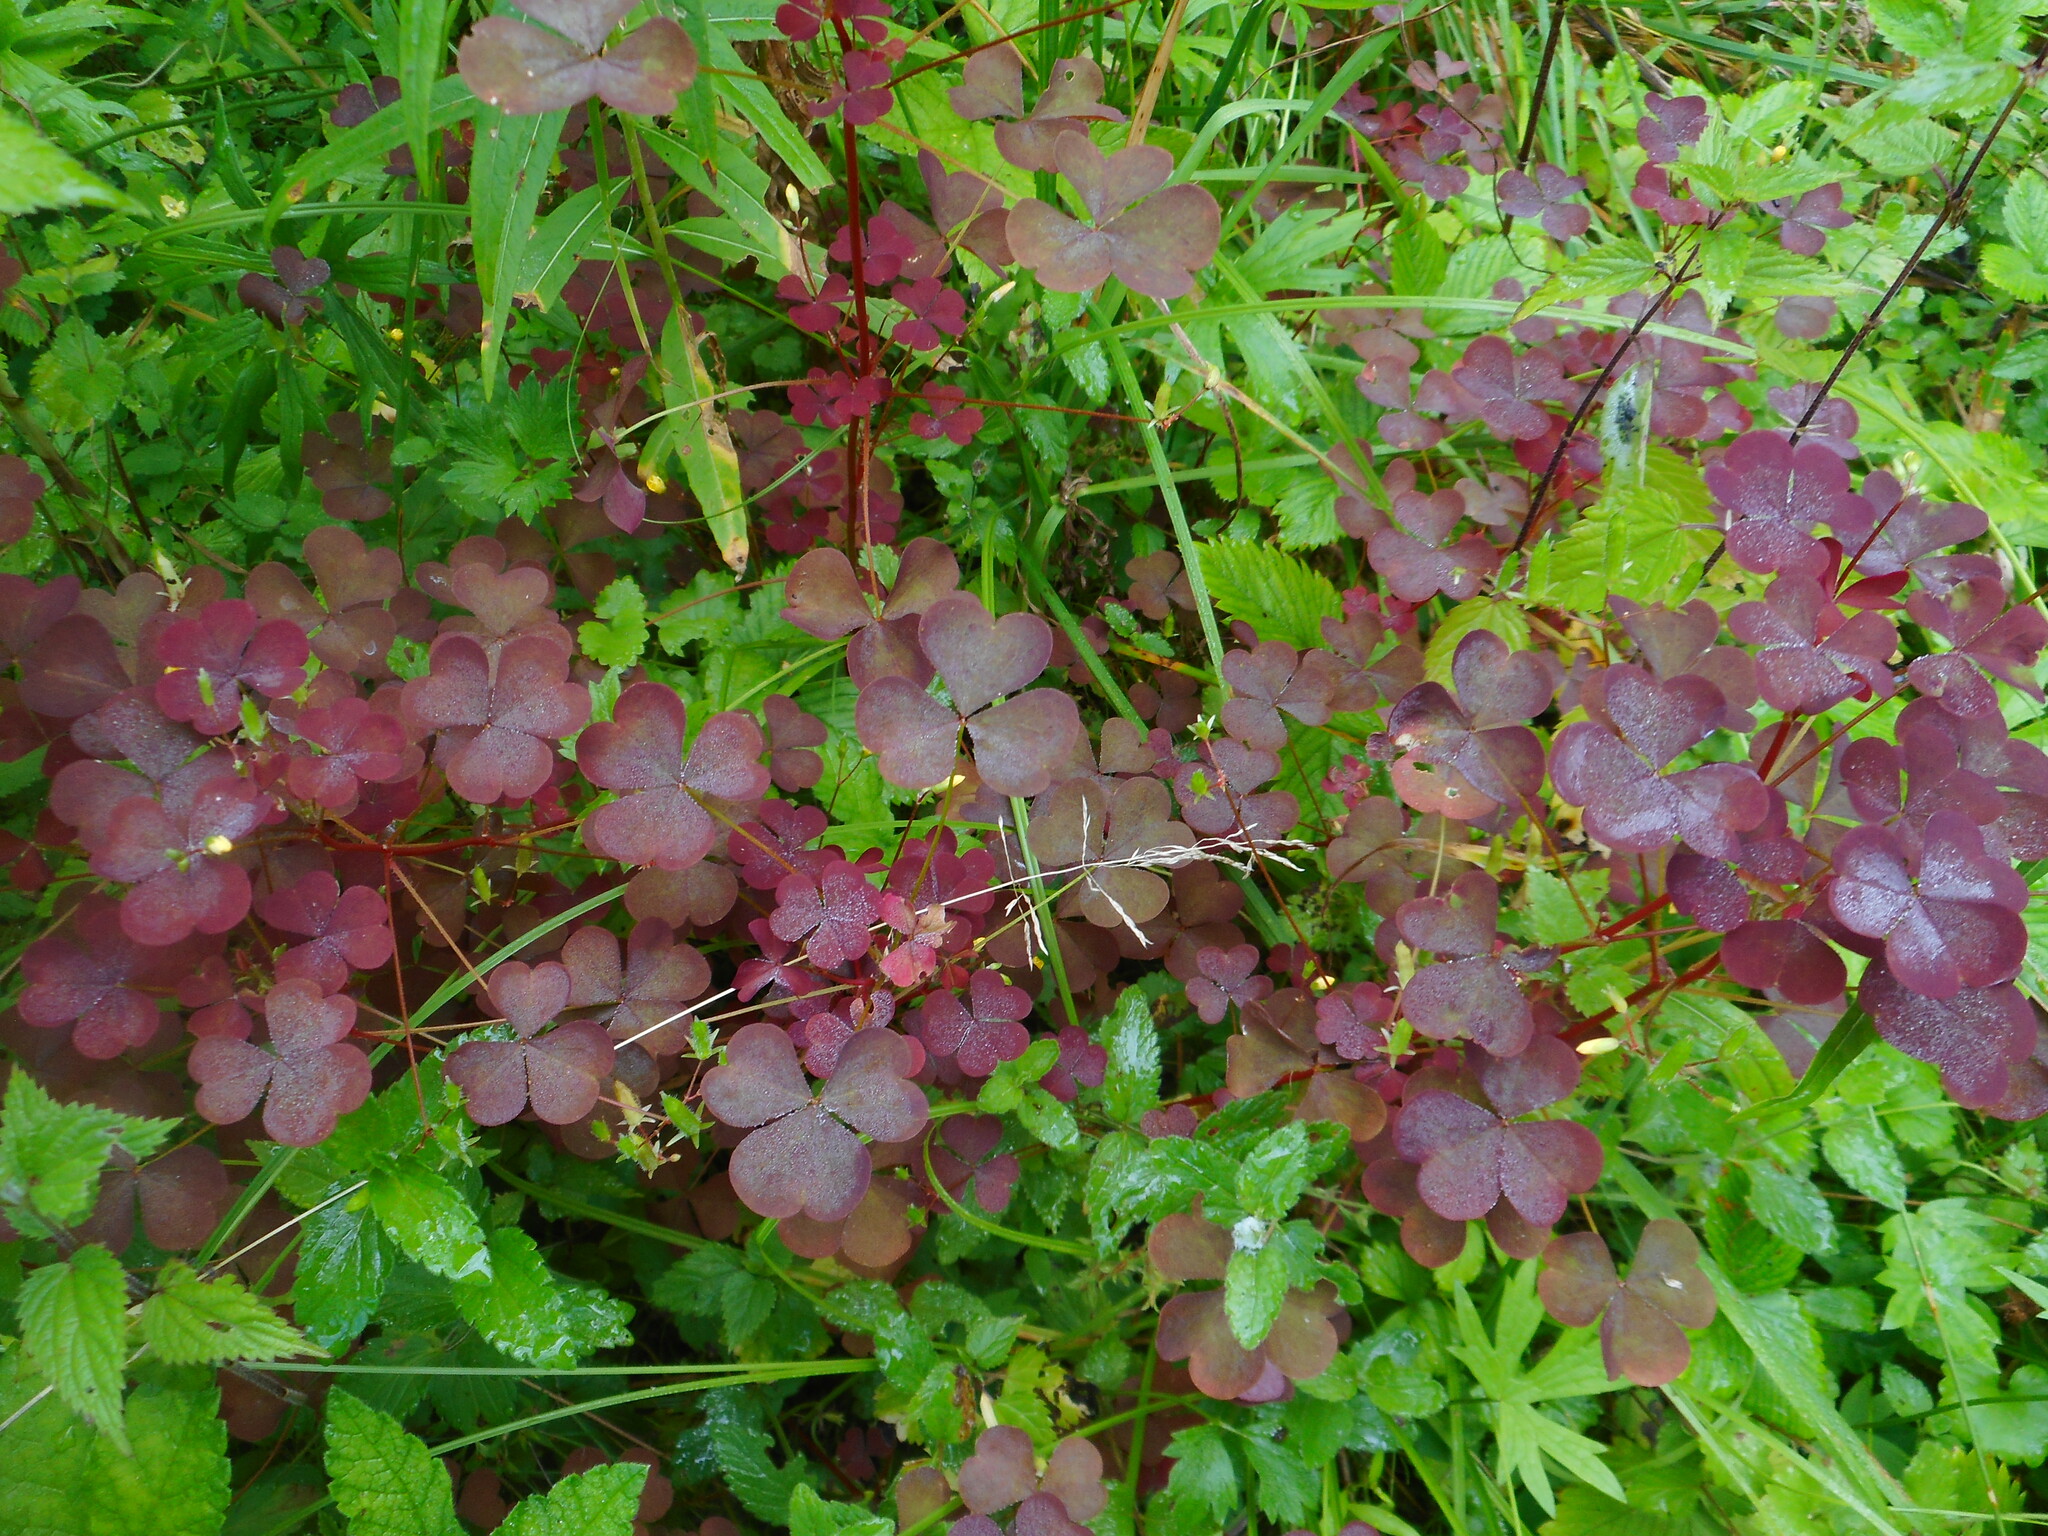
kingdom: Plantae
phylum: Tracheophyta
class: Magnoliopsida
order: Oxalidales
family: Oxalidaceae
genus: Oxalis
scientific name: Oxalis stricta
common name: Upright yellow-sorrel
